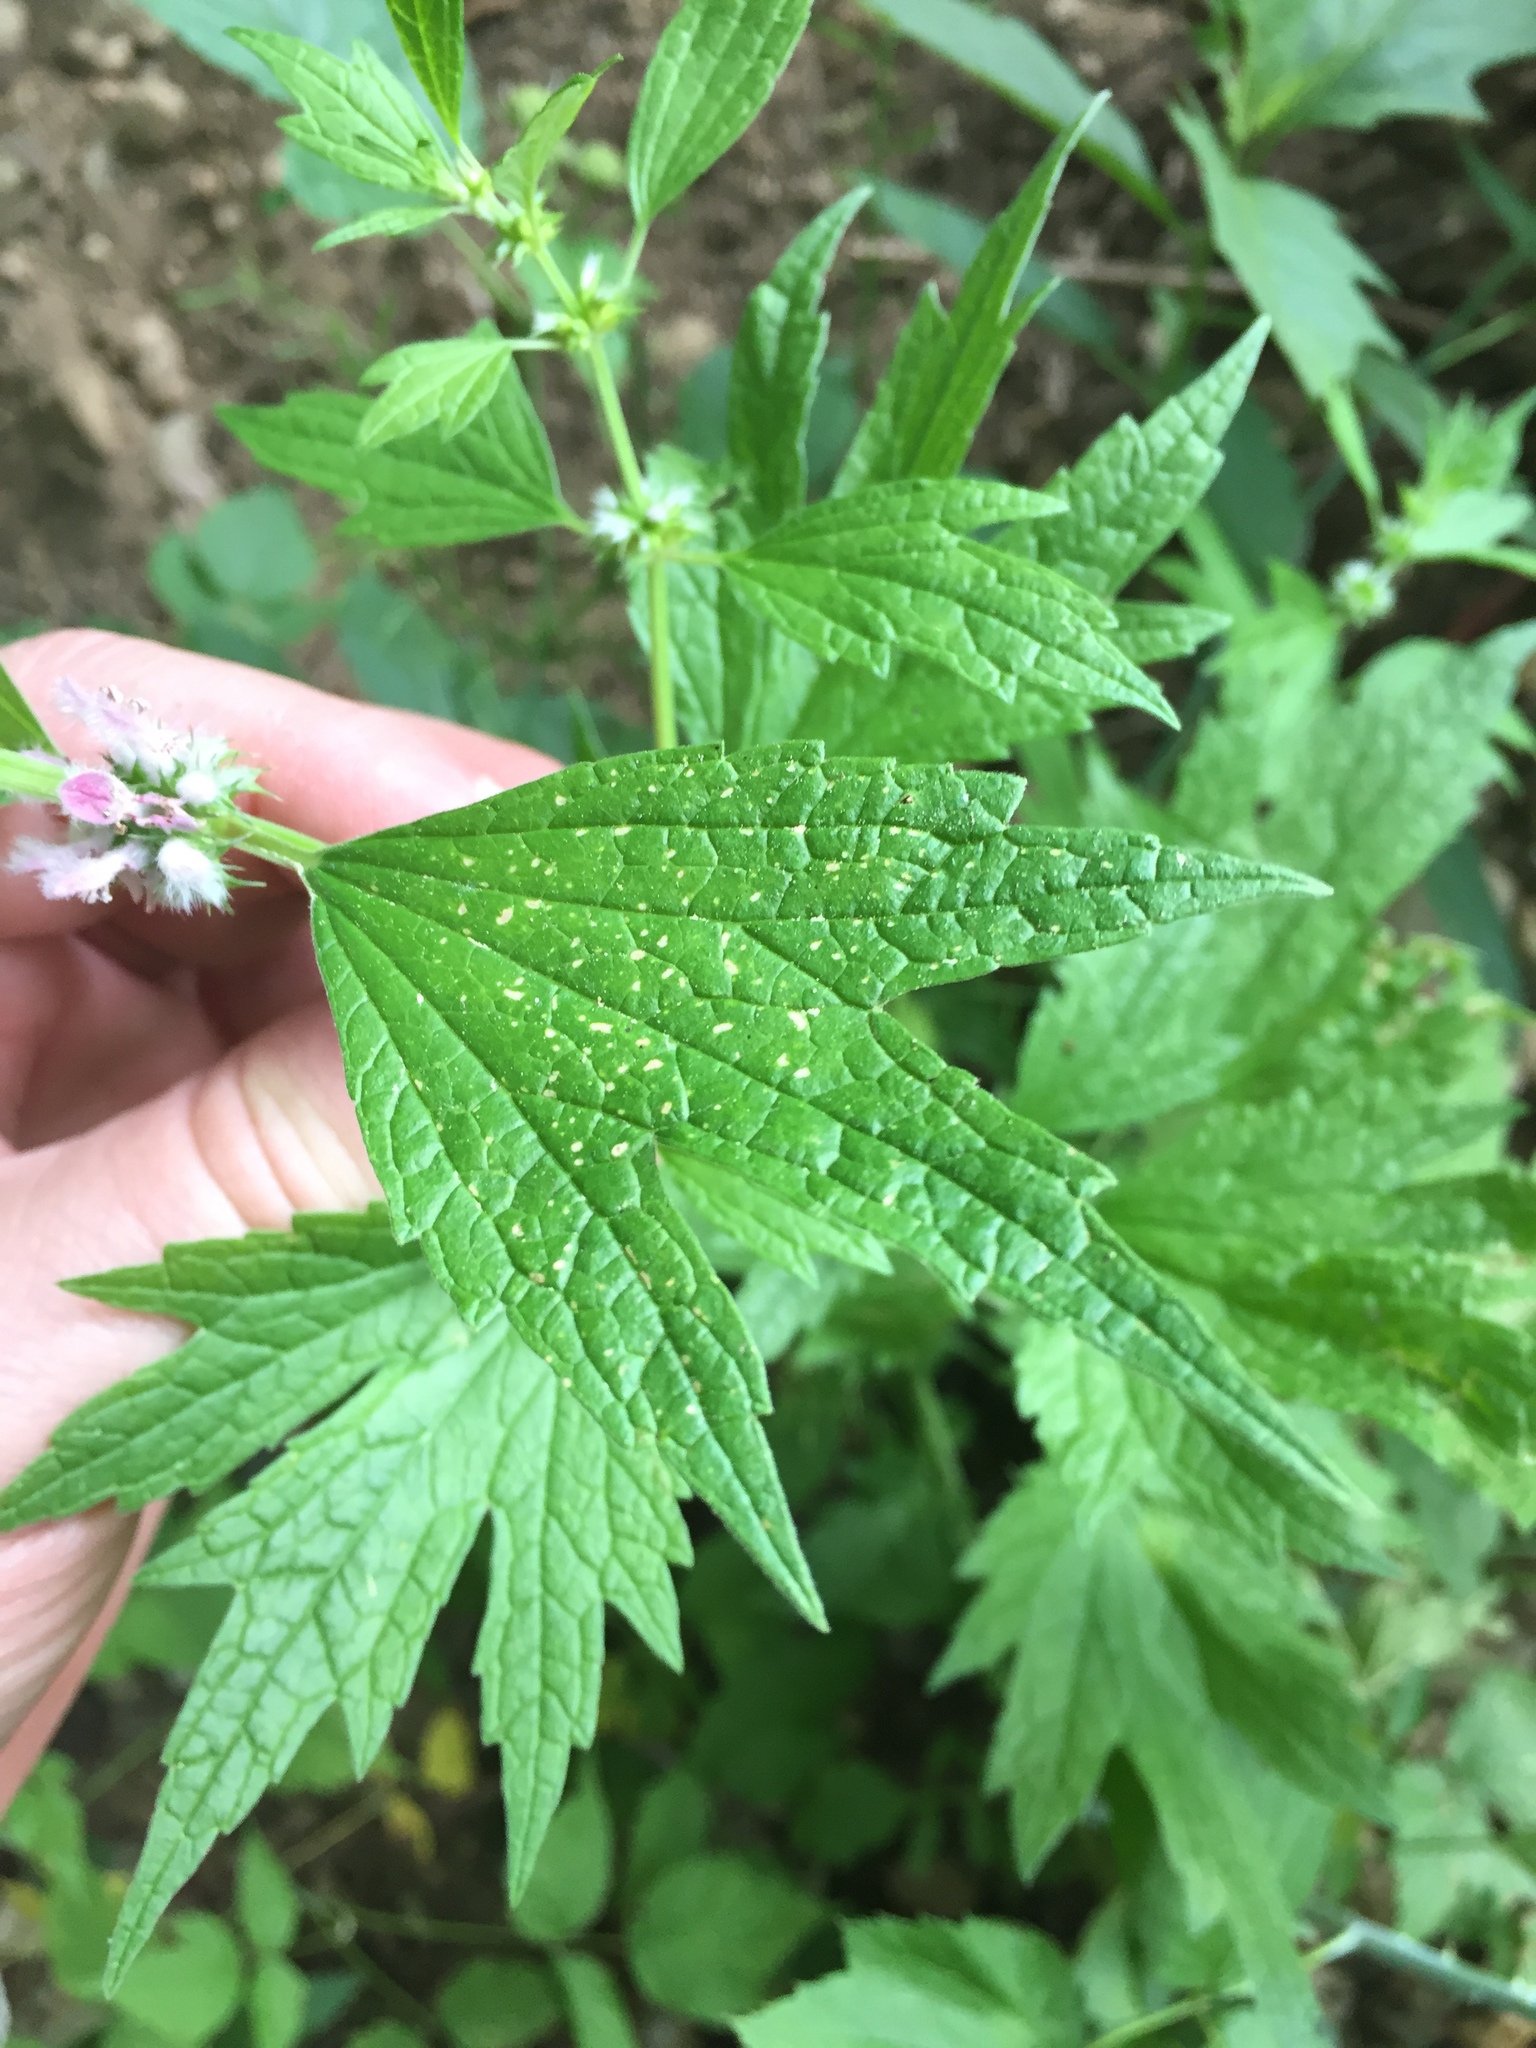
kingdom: Plantae
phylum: Tracheophyta
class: Magnoliopsida
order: Lamiales
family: Lamiaceae
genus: Leonurus
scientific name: Leonurus cardiaca
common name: Motherwort
